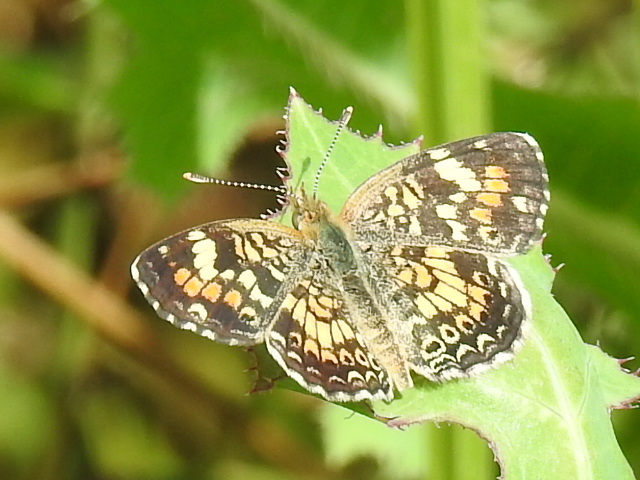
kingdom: Animalia
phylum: Arthropoda
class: Insecta
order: Lepidoptera
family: Nymphalidae
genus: Phyciodes
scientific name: Phyciodes phaon
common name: Phaon crescent
